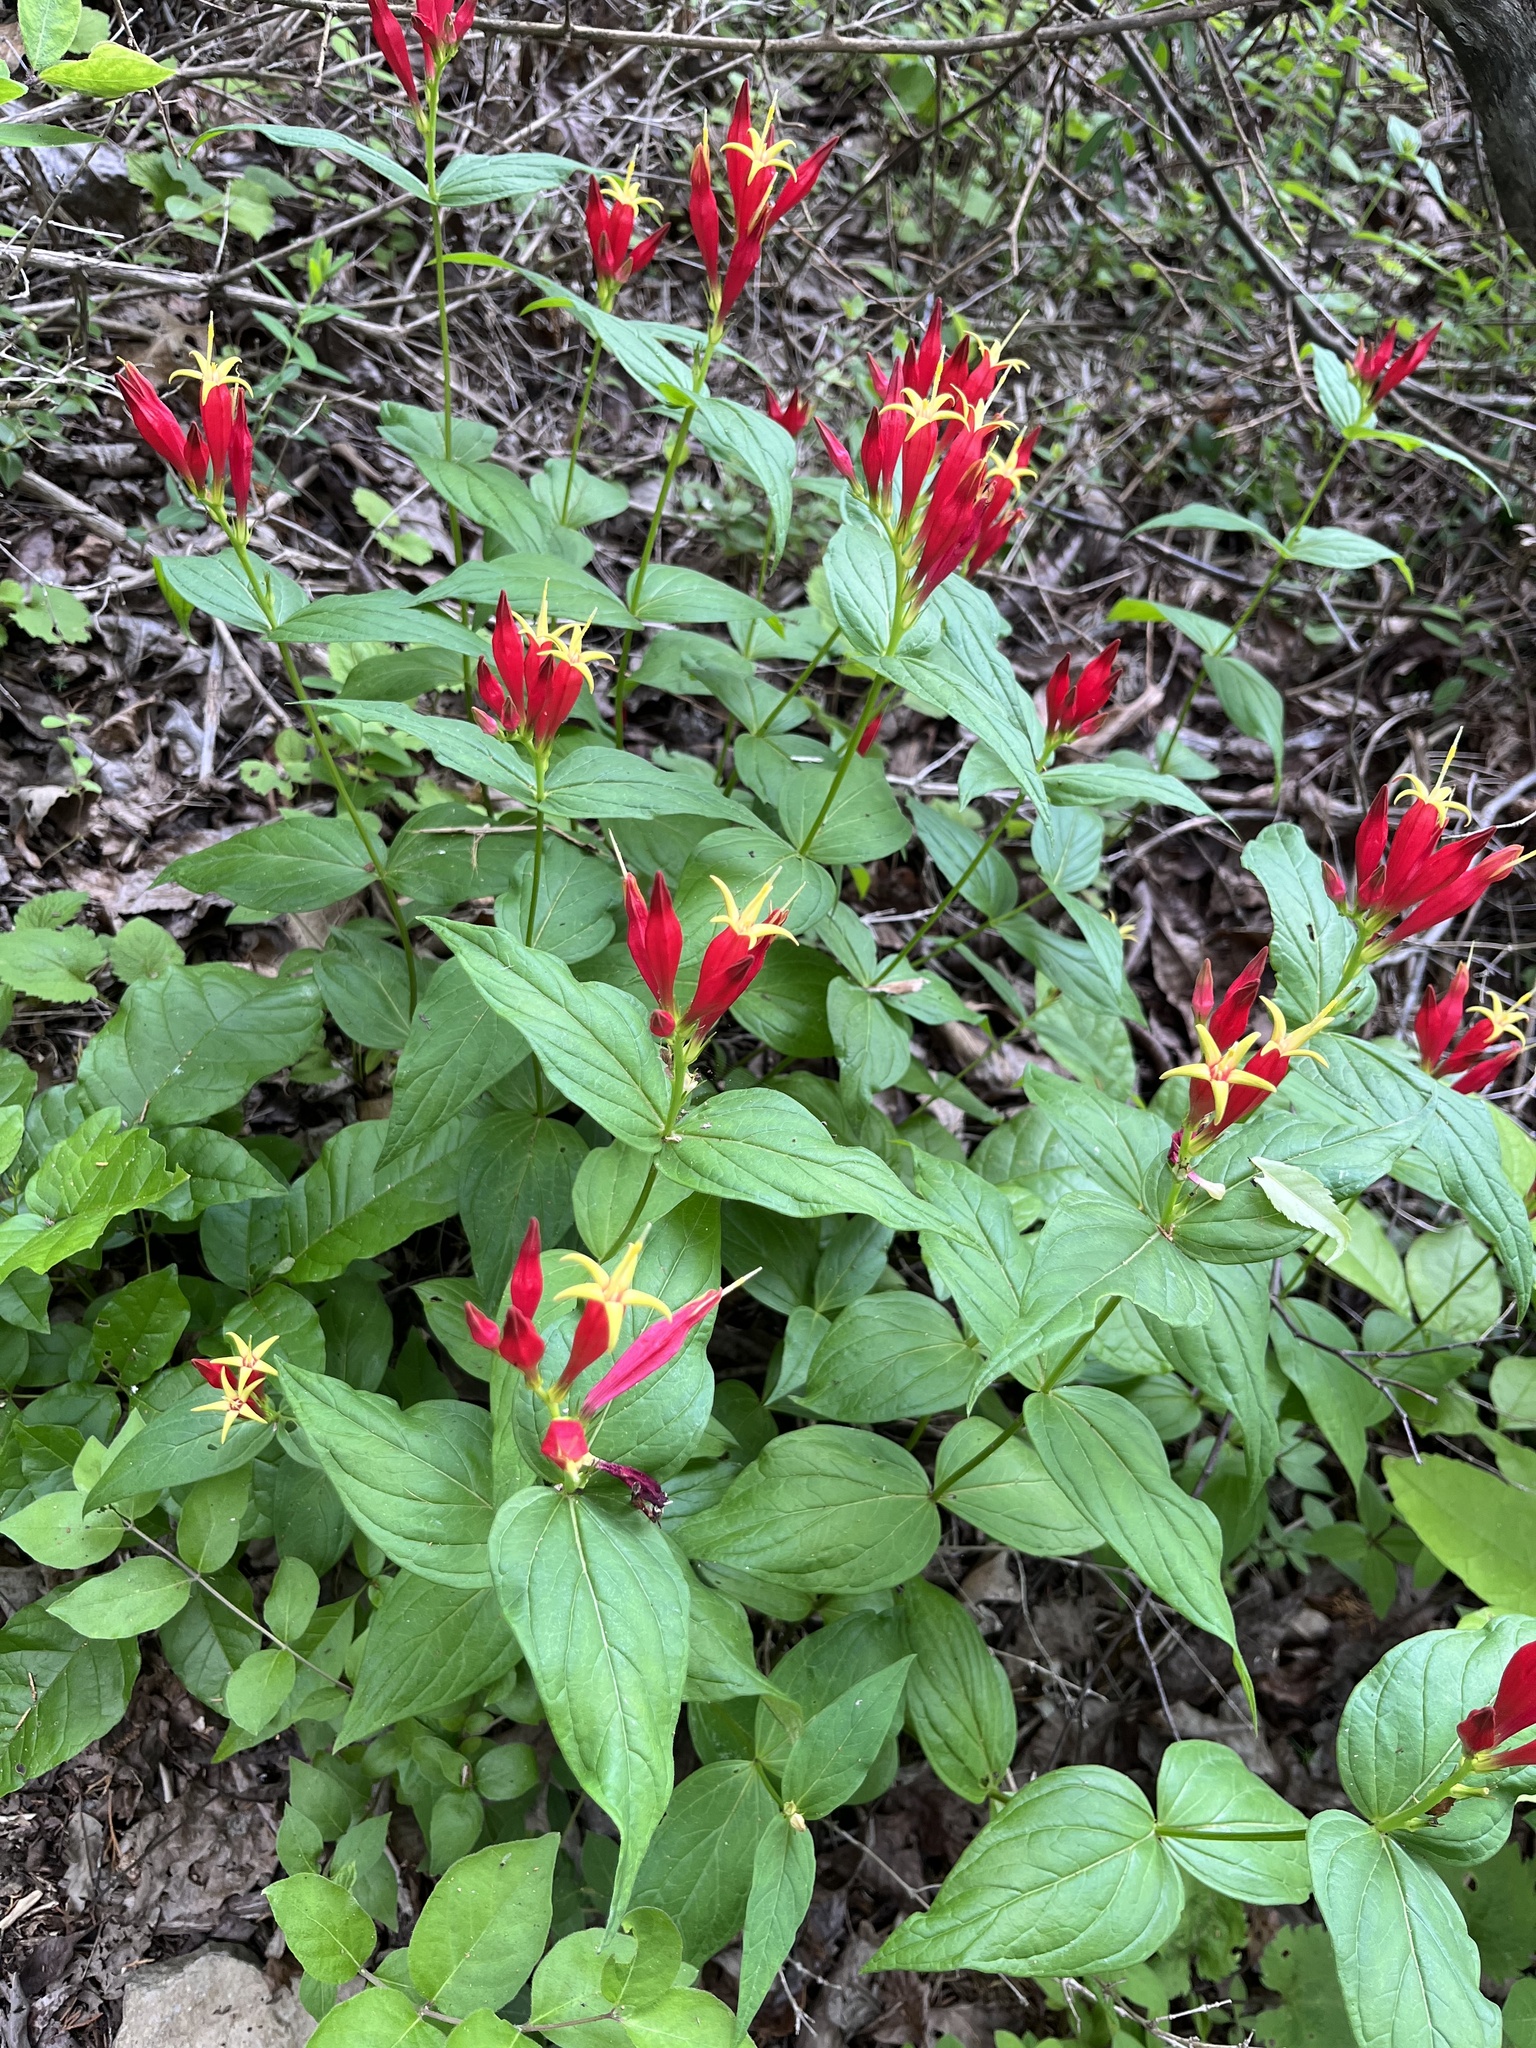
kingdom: Plantae
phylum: Tracheophyta
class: Magnoliopsida
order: Gentianales
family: Loganiaceae
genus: Spigelia
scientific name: Spigelia marilandica
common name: Indian-pink
